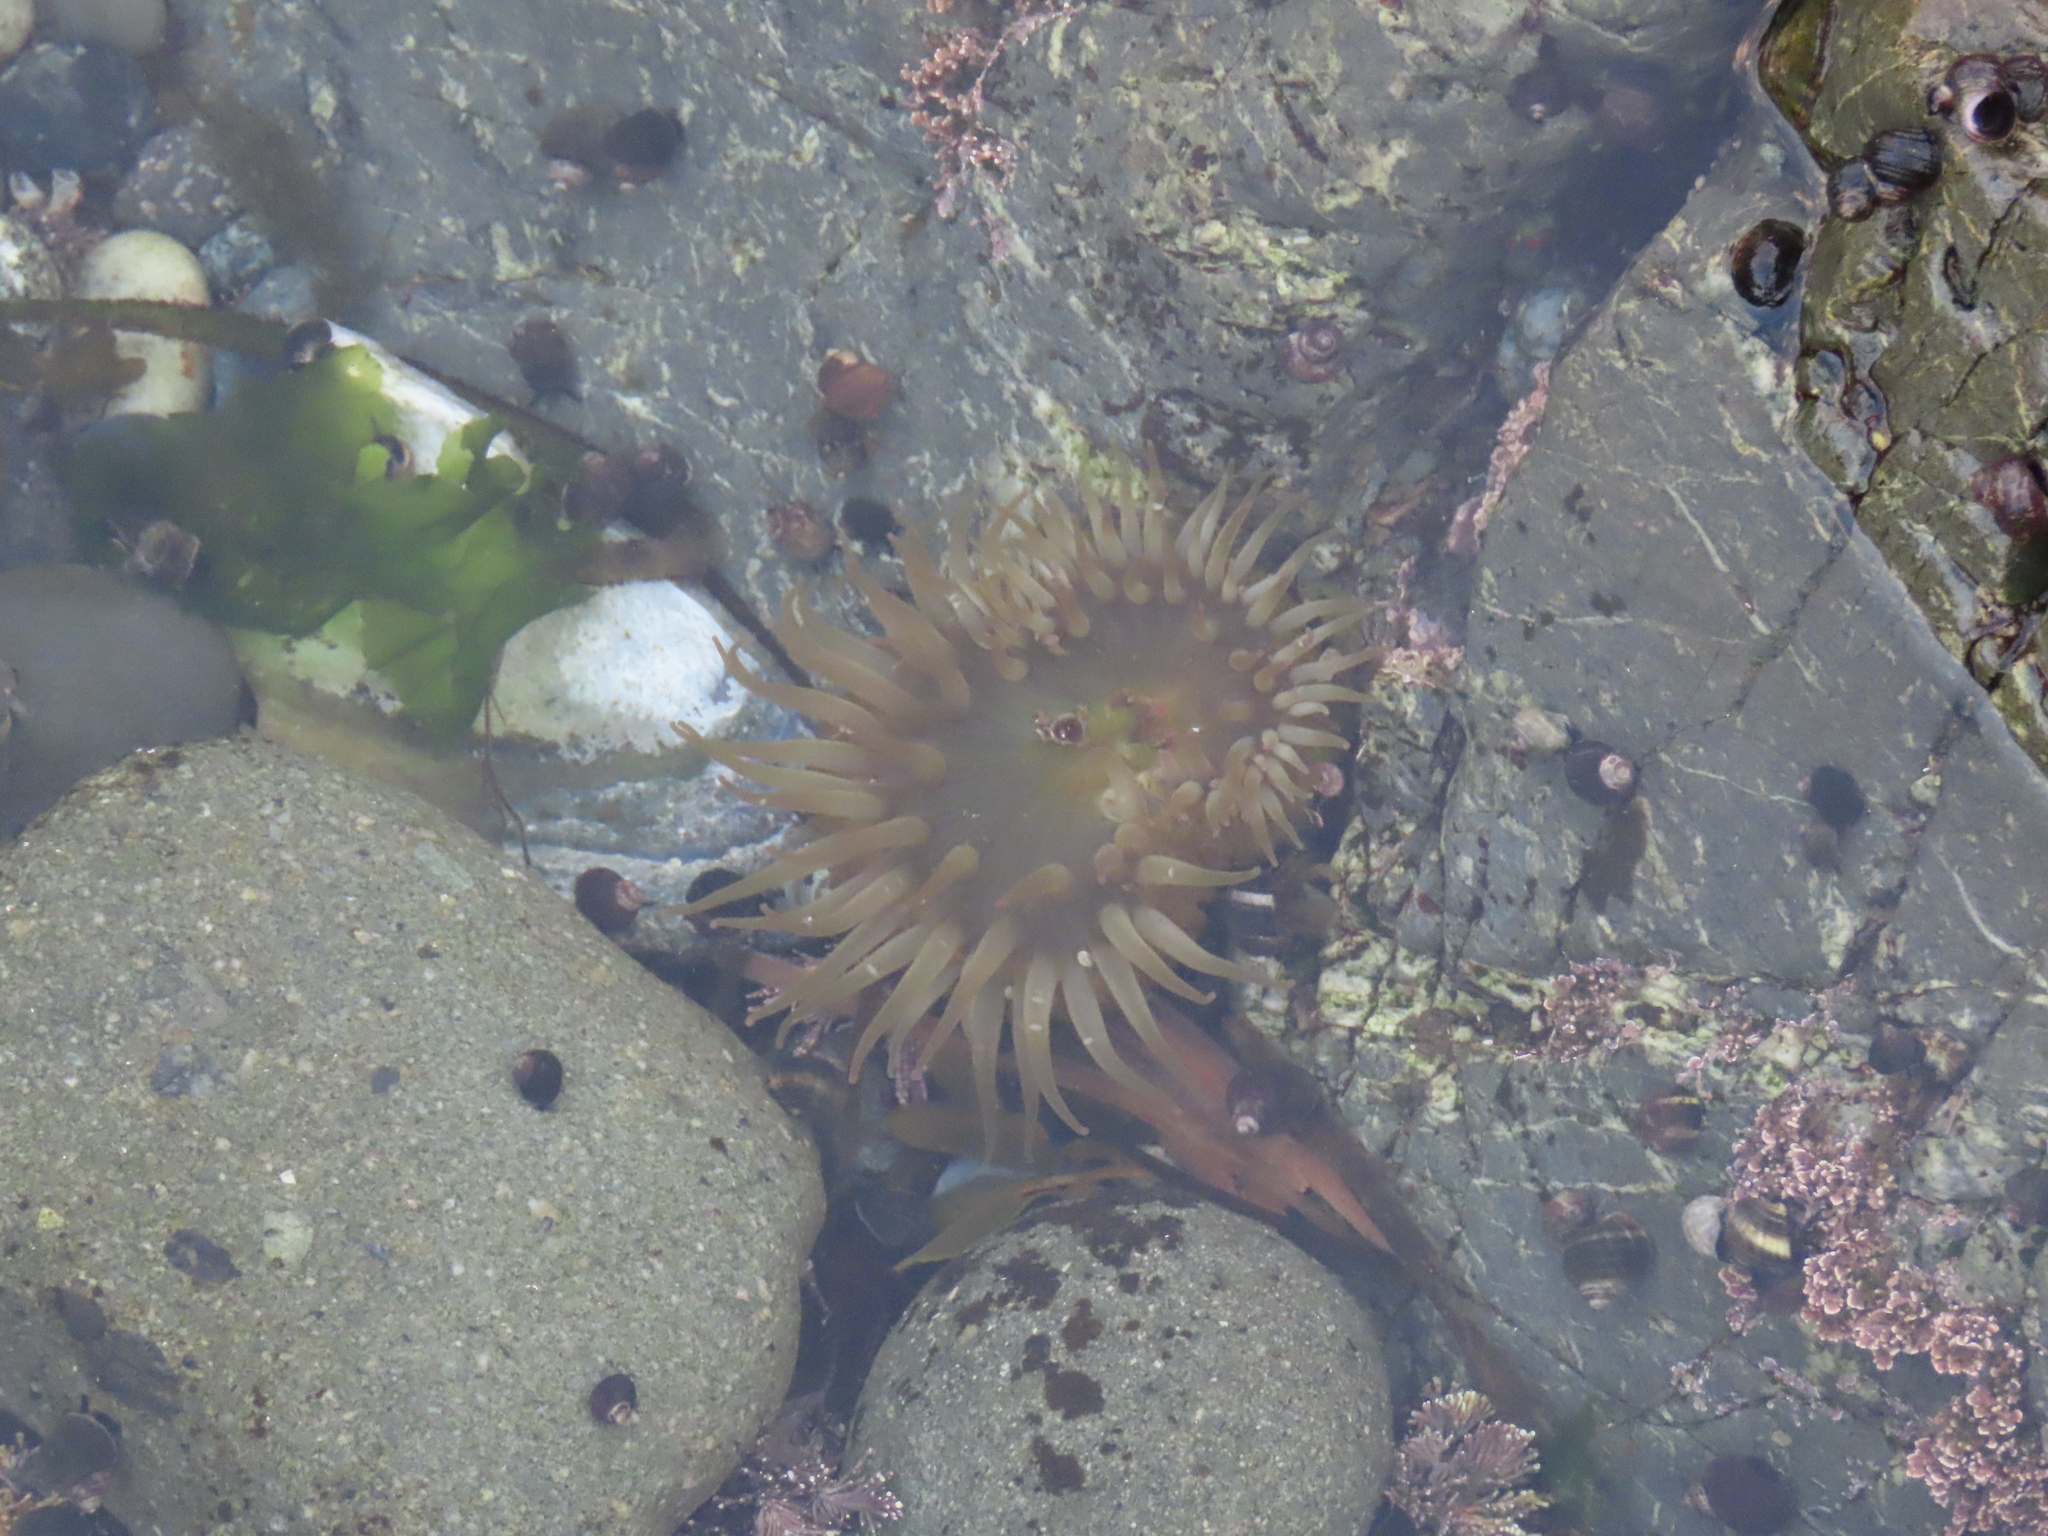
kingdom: Animalia
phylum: Cnidaria
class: Anthozoa
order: Actiniaria
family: Actiniidae
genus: Anthopleura
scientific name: Anthopleura elegantissima
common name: Clonal anemone
